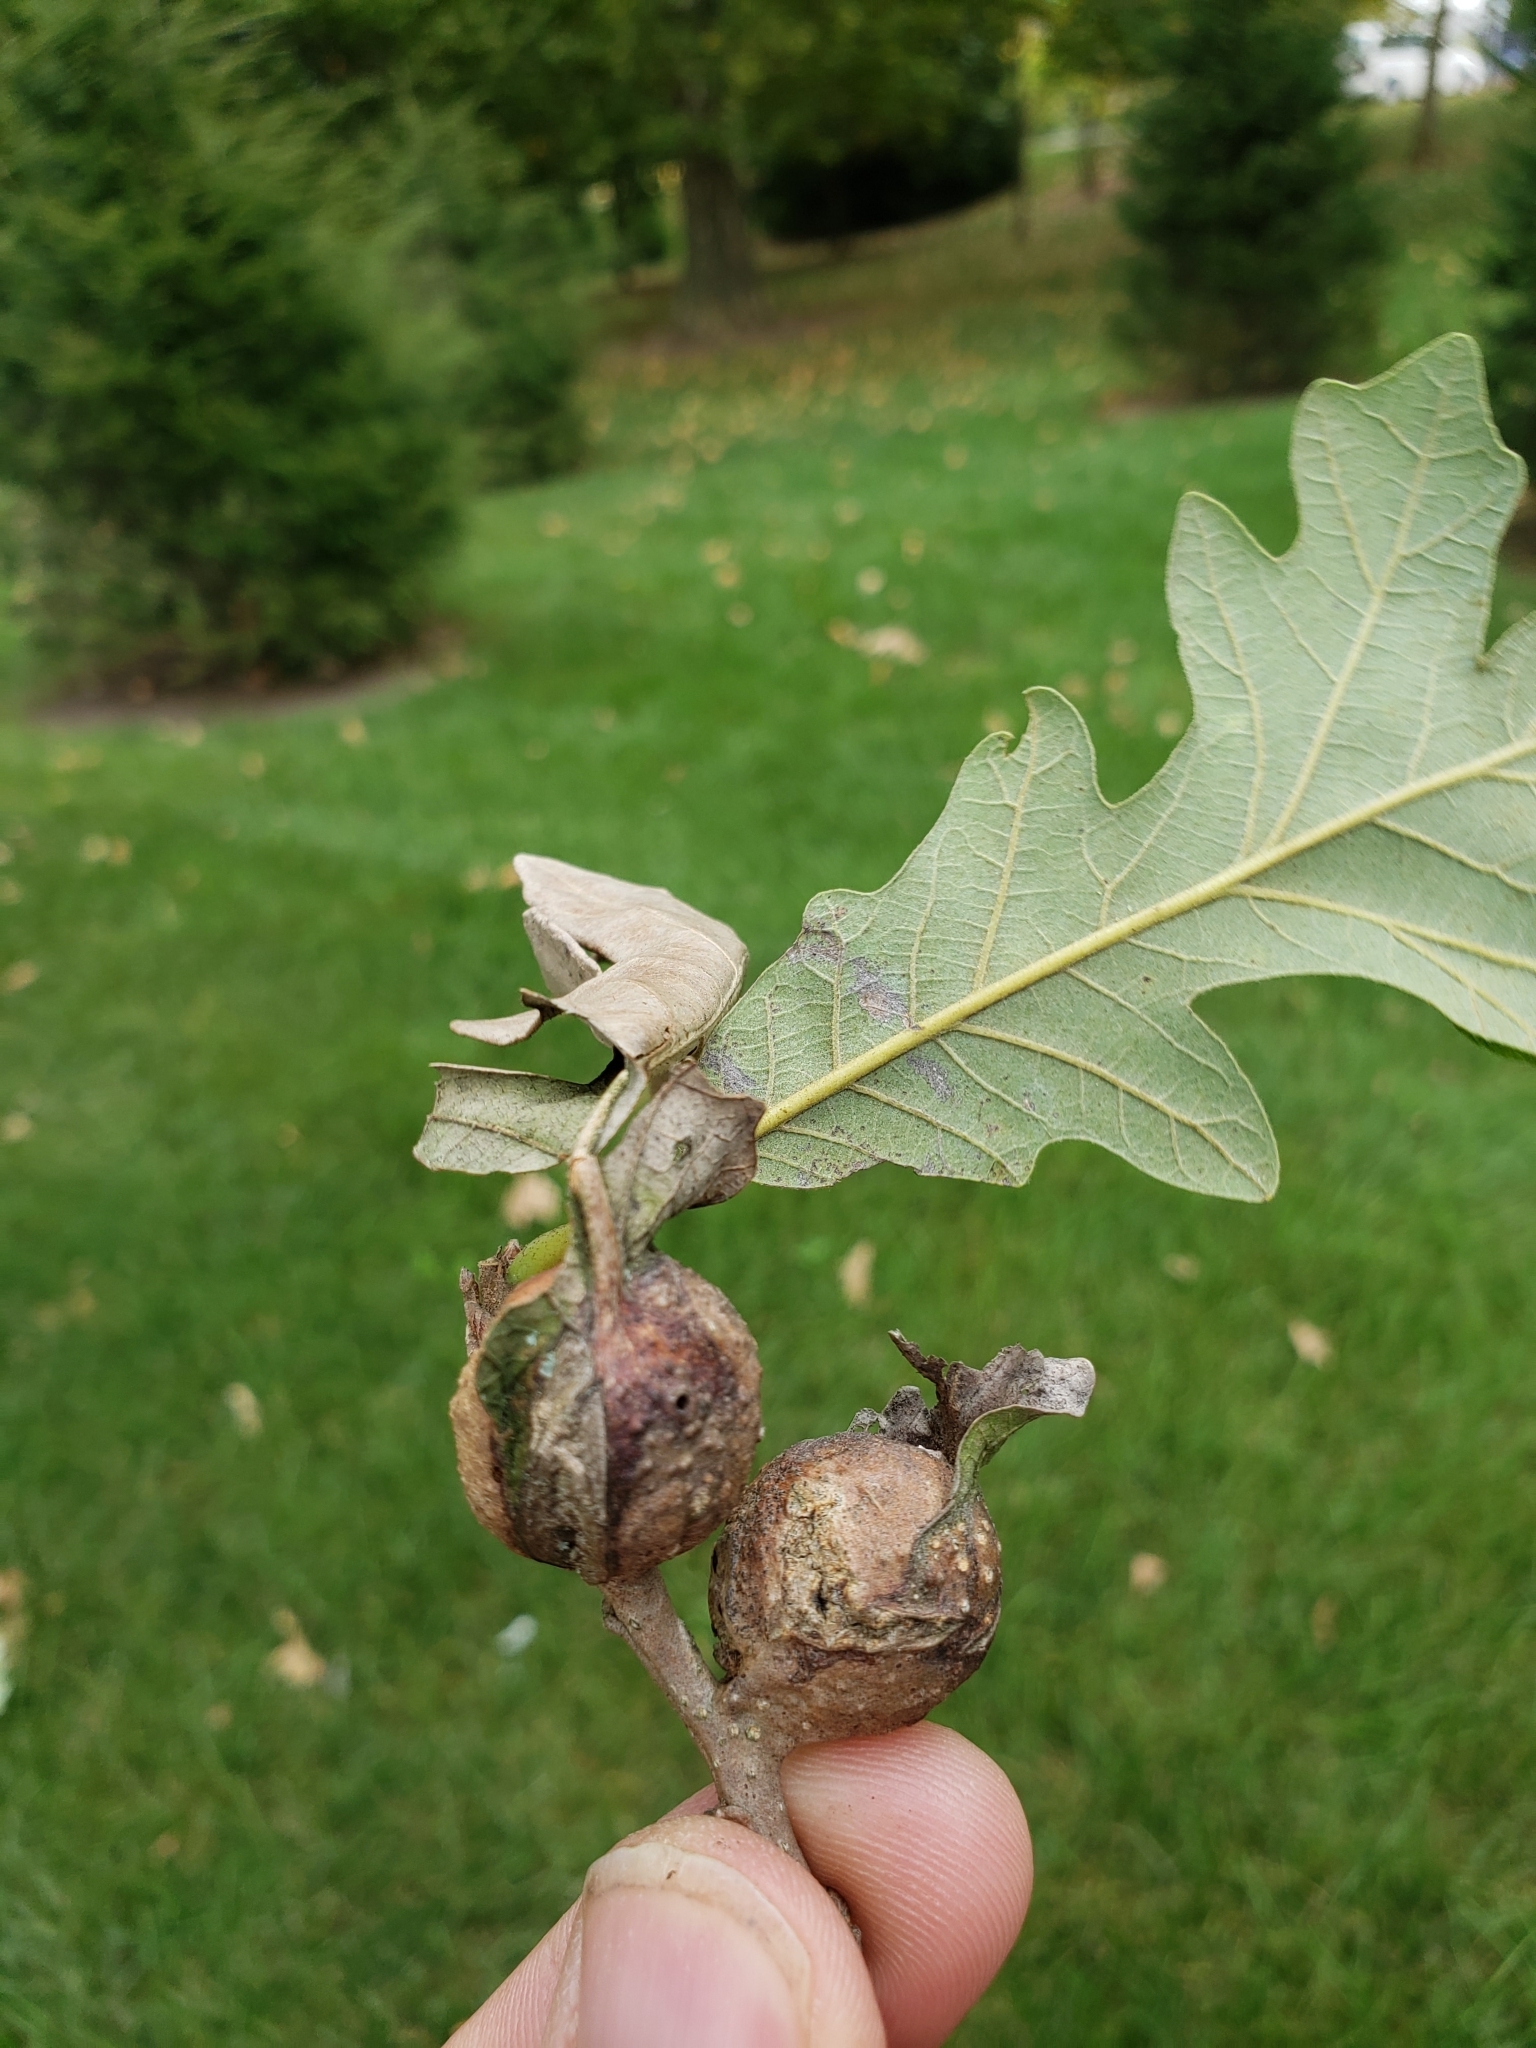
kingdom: Animalia
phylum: Arthropoda
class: Insecta
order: Hymenoptera
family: Cynipidae
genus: Andricus
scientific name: Andricus
